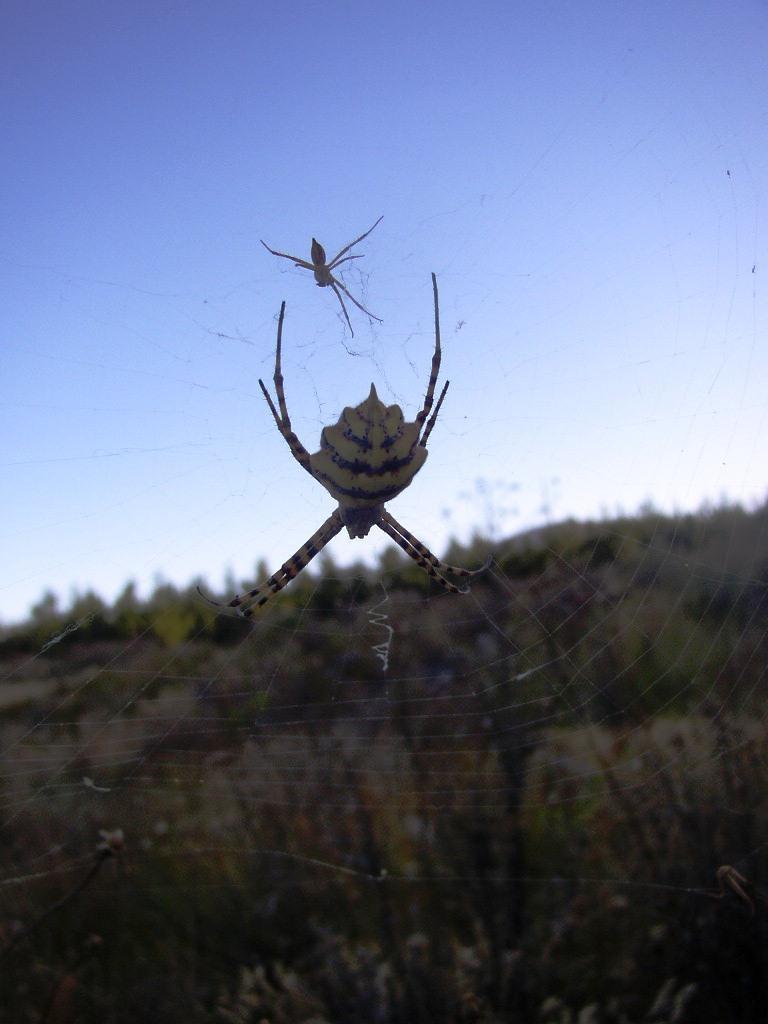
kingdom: Animalia
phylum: Arthropoda
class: Arachnida
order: Araneae
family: Araneidae
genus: Argiope
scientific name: Argiope australis
